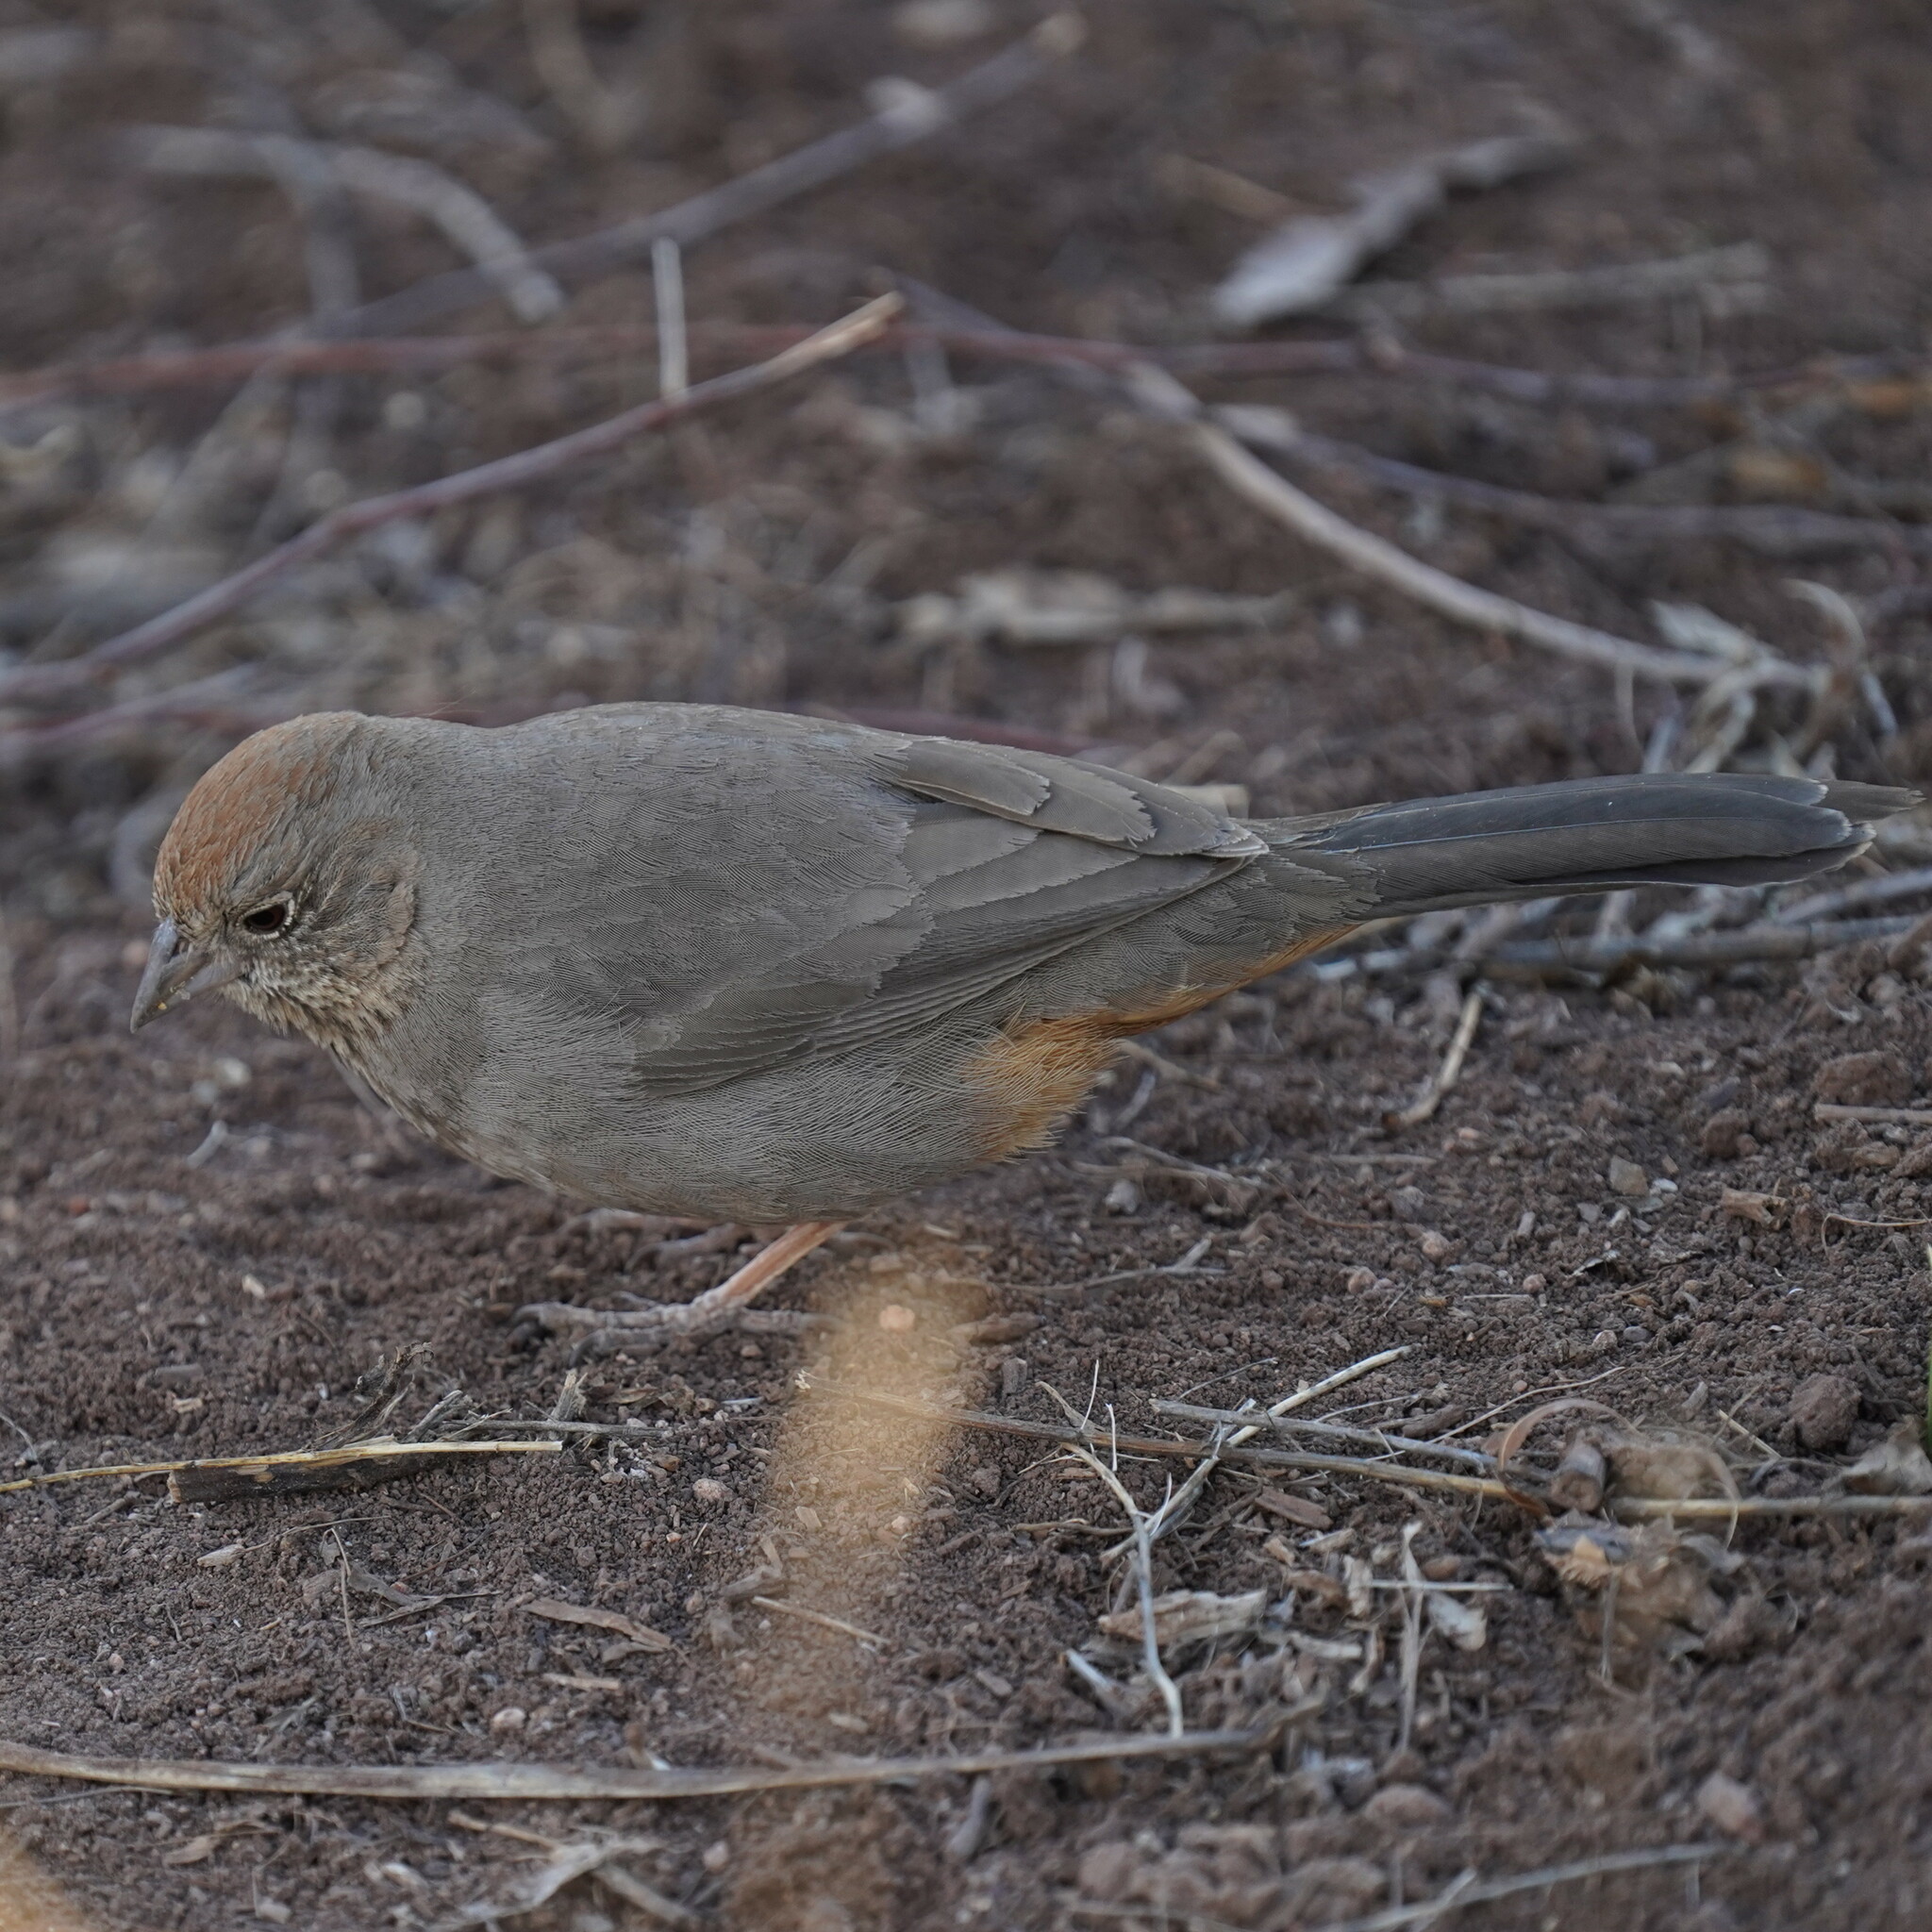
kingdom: Animalia
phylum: Chordata
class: Aves
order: Passeriformes
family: Passerellidae
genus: Melozone
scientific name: Melozone fusca
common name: Canyon towhee
